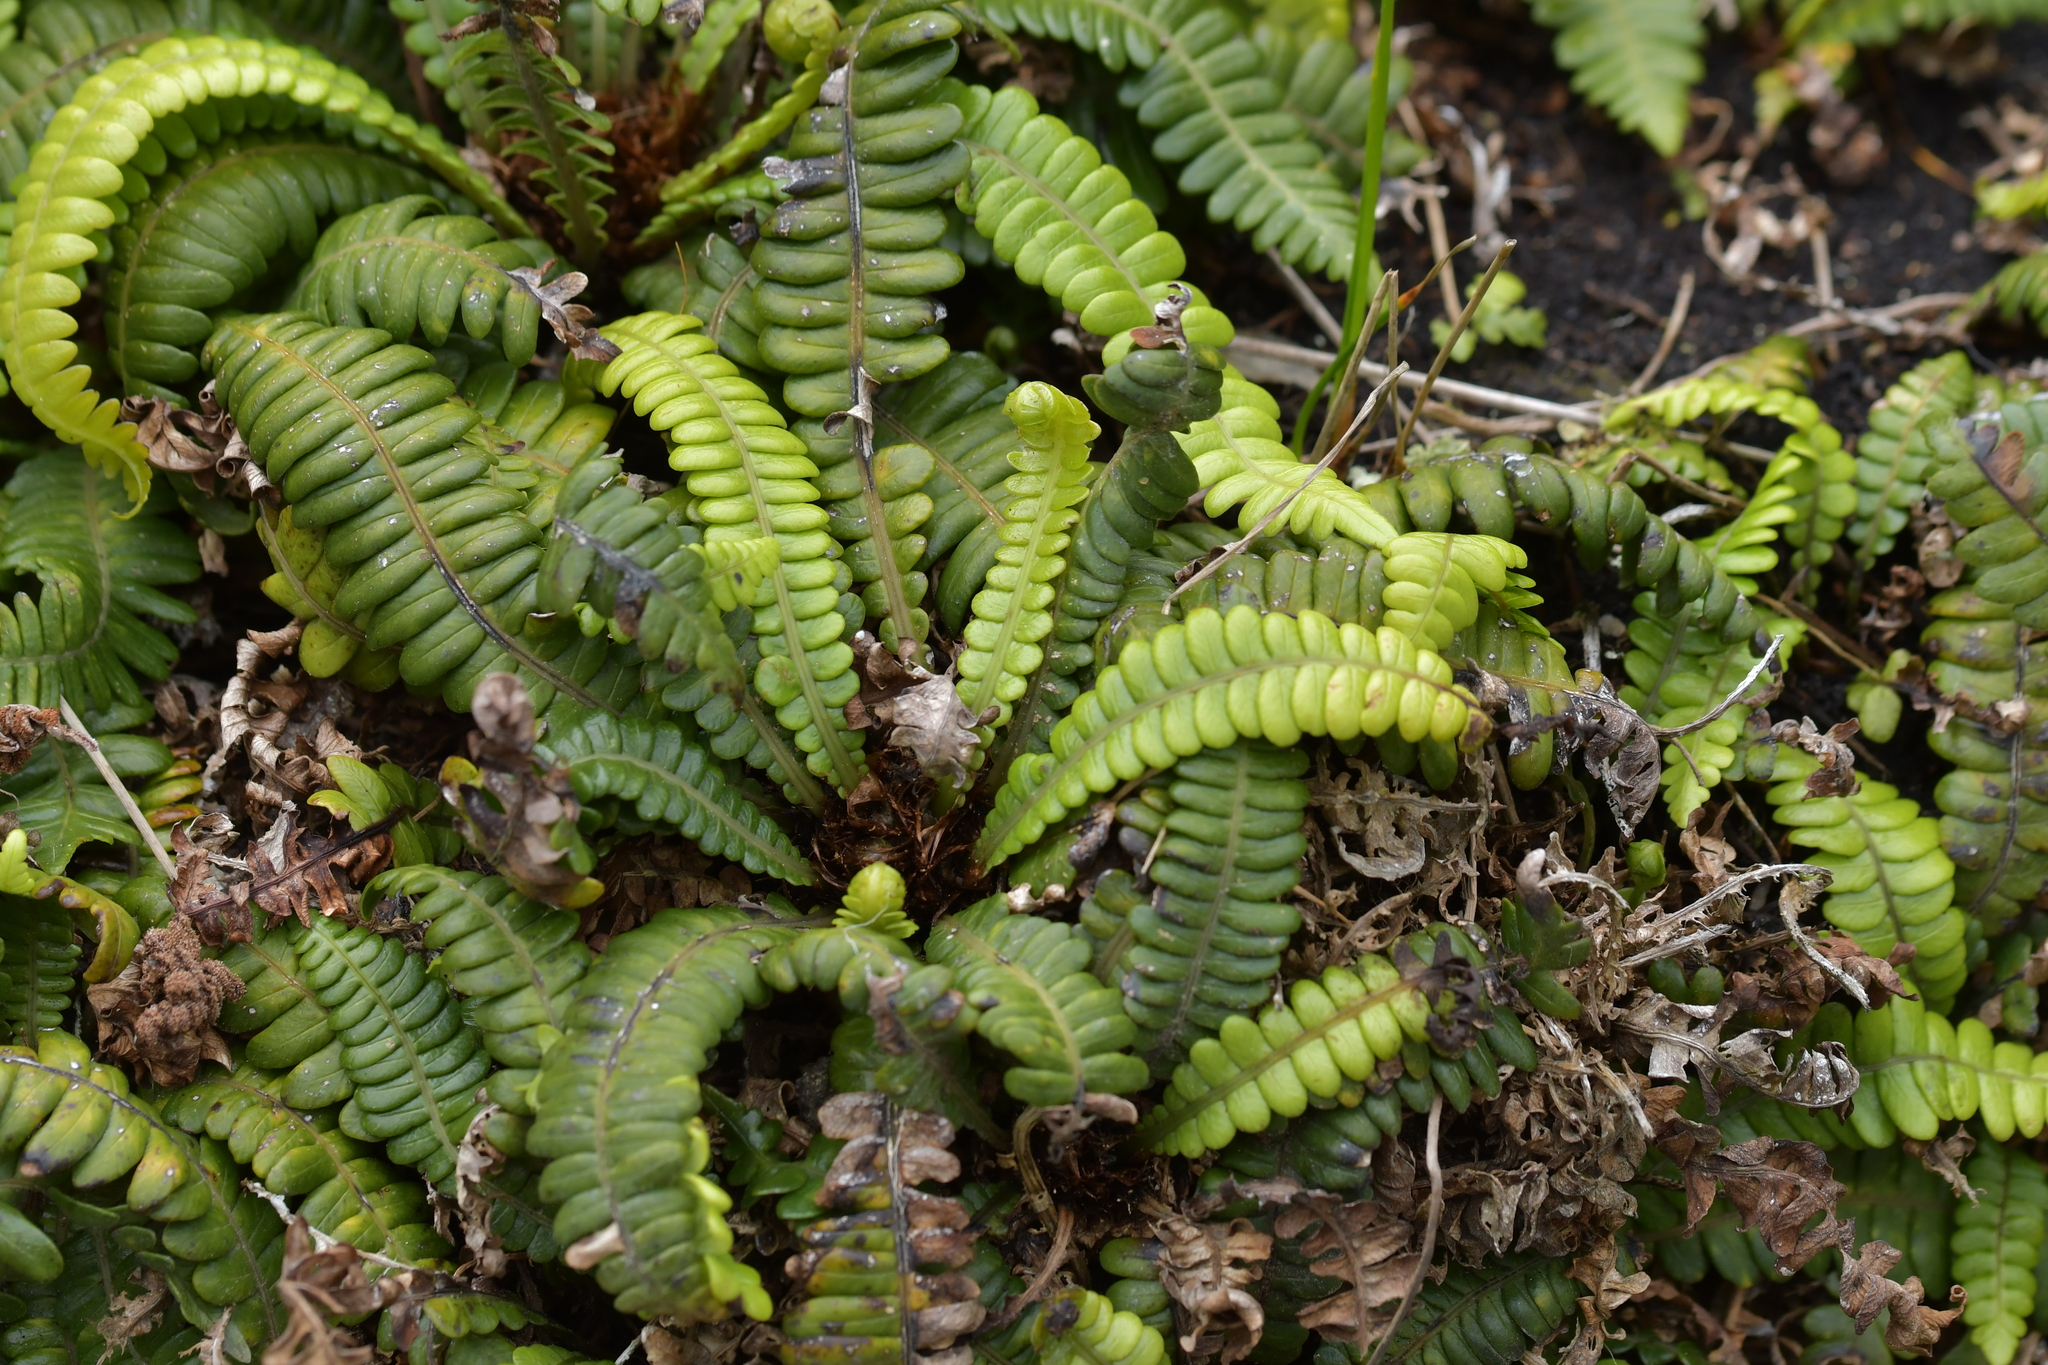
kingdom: Plantae
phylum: Tracheophyta
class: Polypodiopsida
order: Polypodiales
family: Blechnaceae
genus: Austroblechnum
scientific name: Austroblechnum durum
